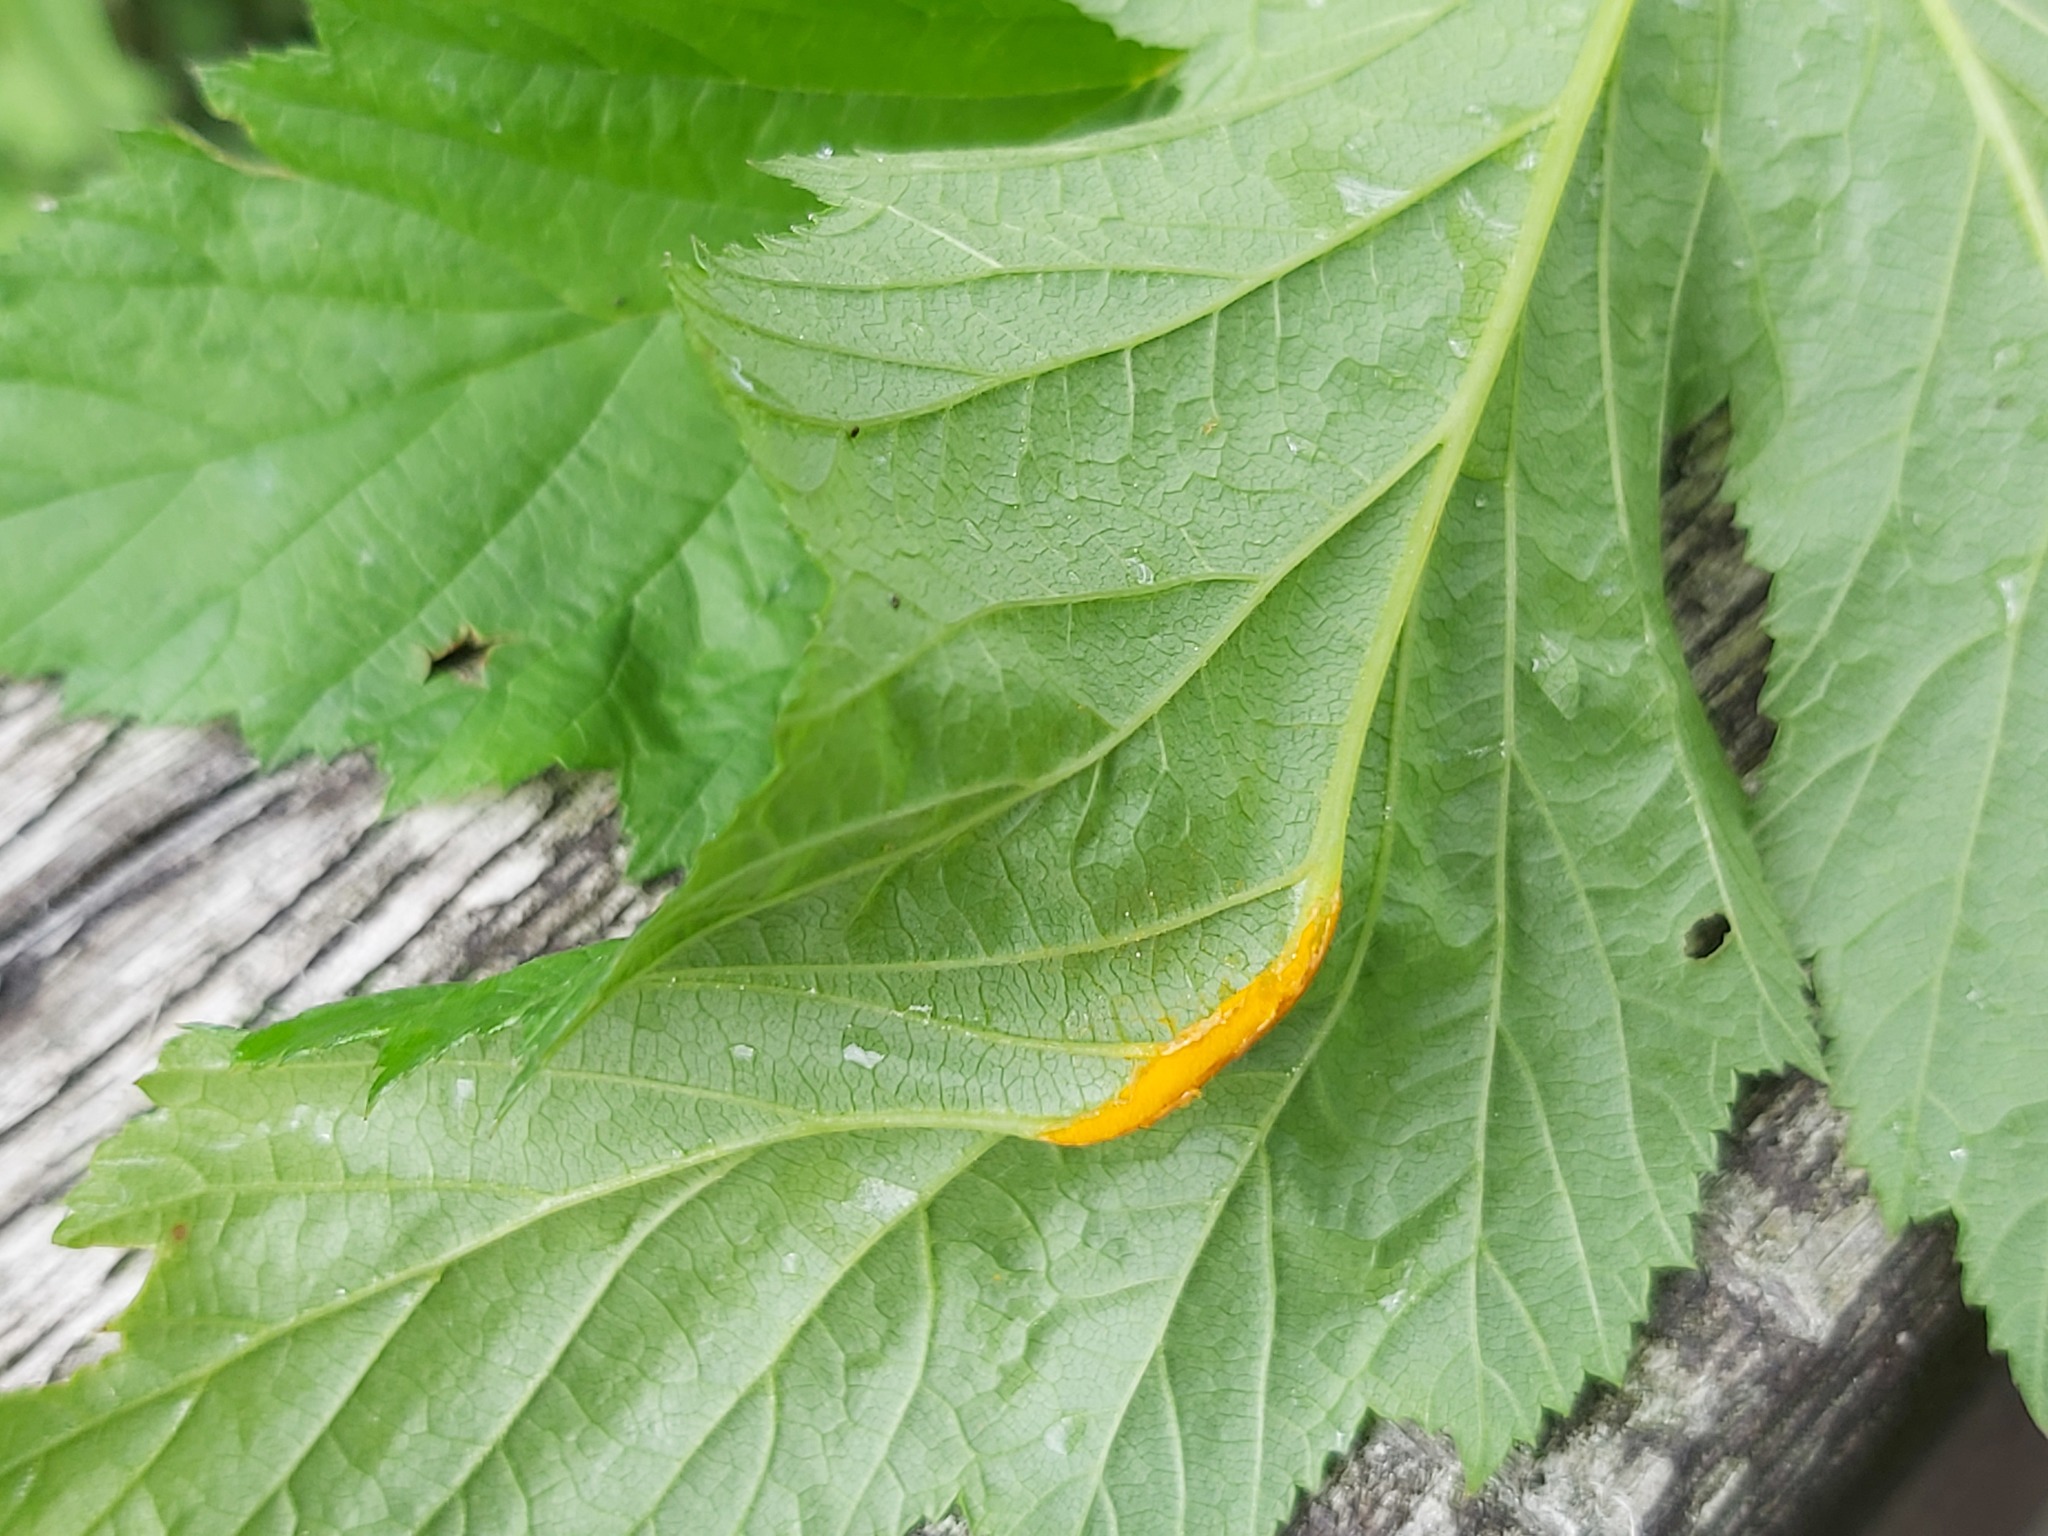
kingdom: Fungi
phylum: Basidiomycota
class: Pucciniomycetes
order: Pucciniales
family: Raveneliaceae
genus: Triphragmium
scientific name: Triphragmium ulmariae
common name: Meadowsweet rust
